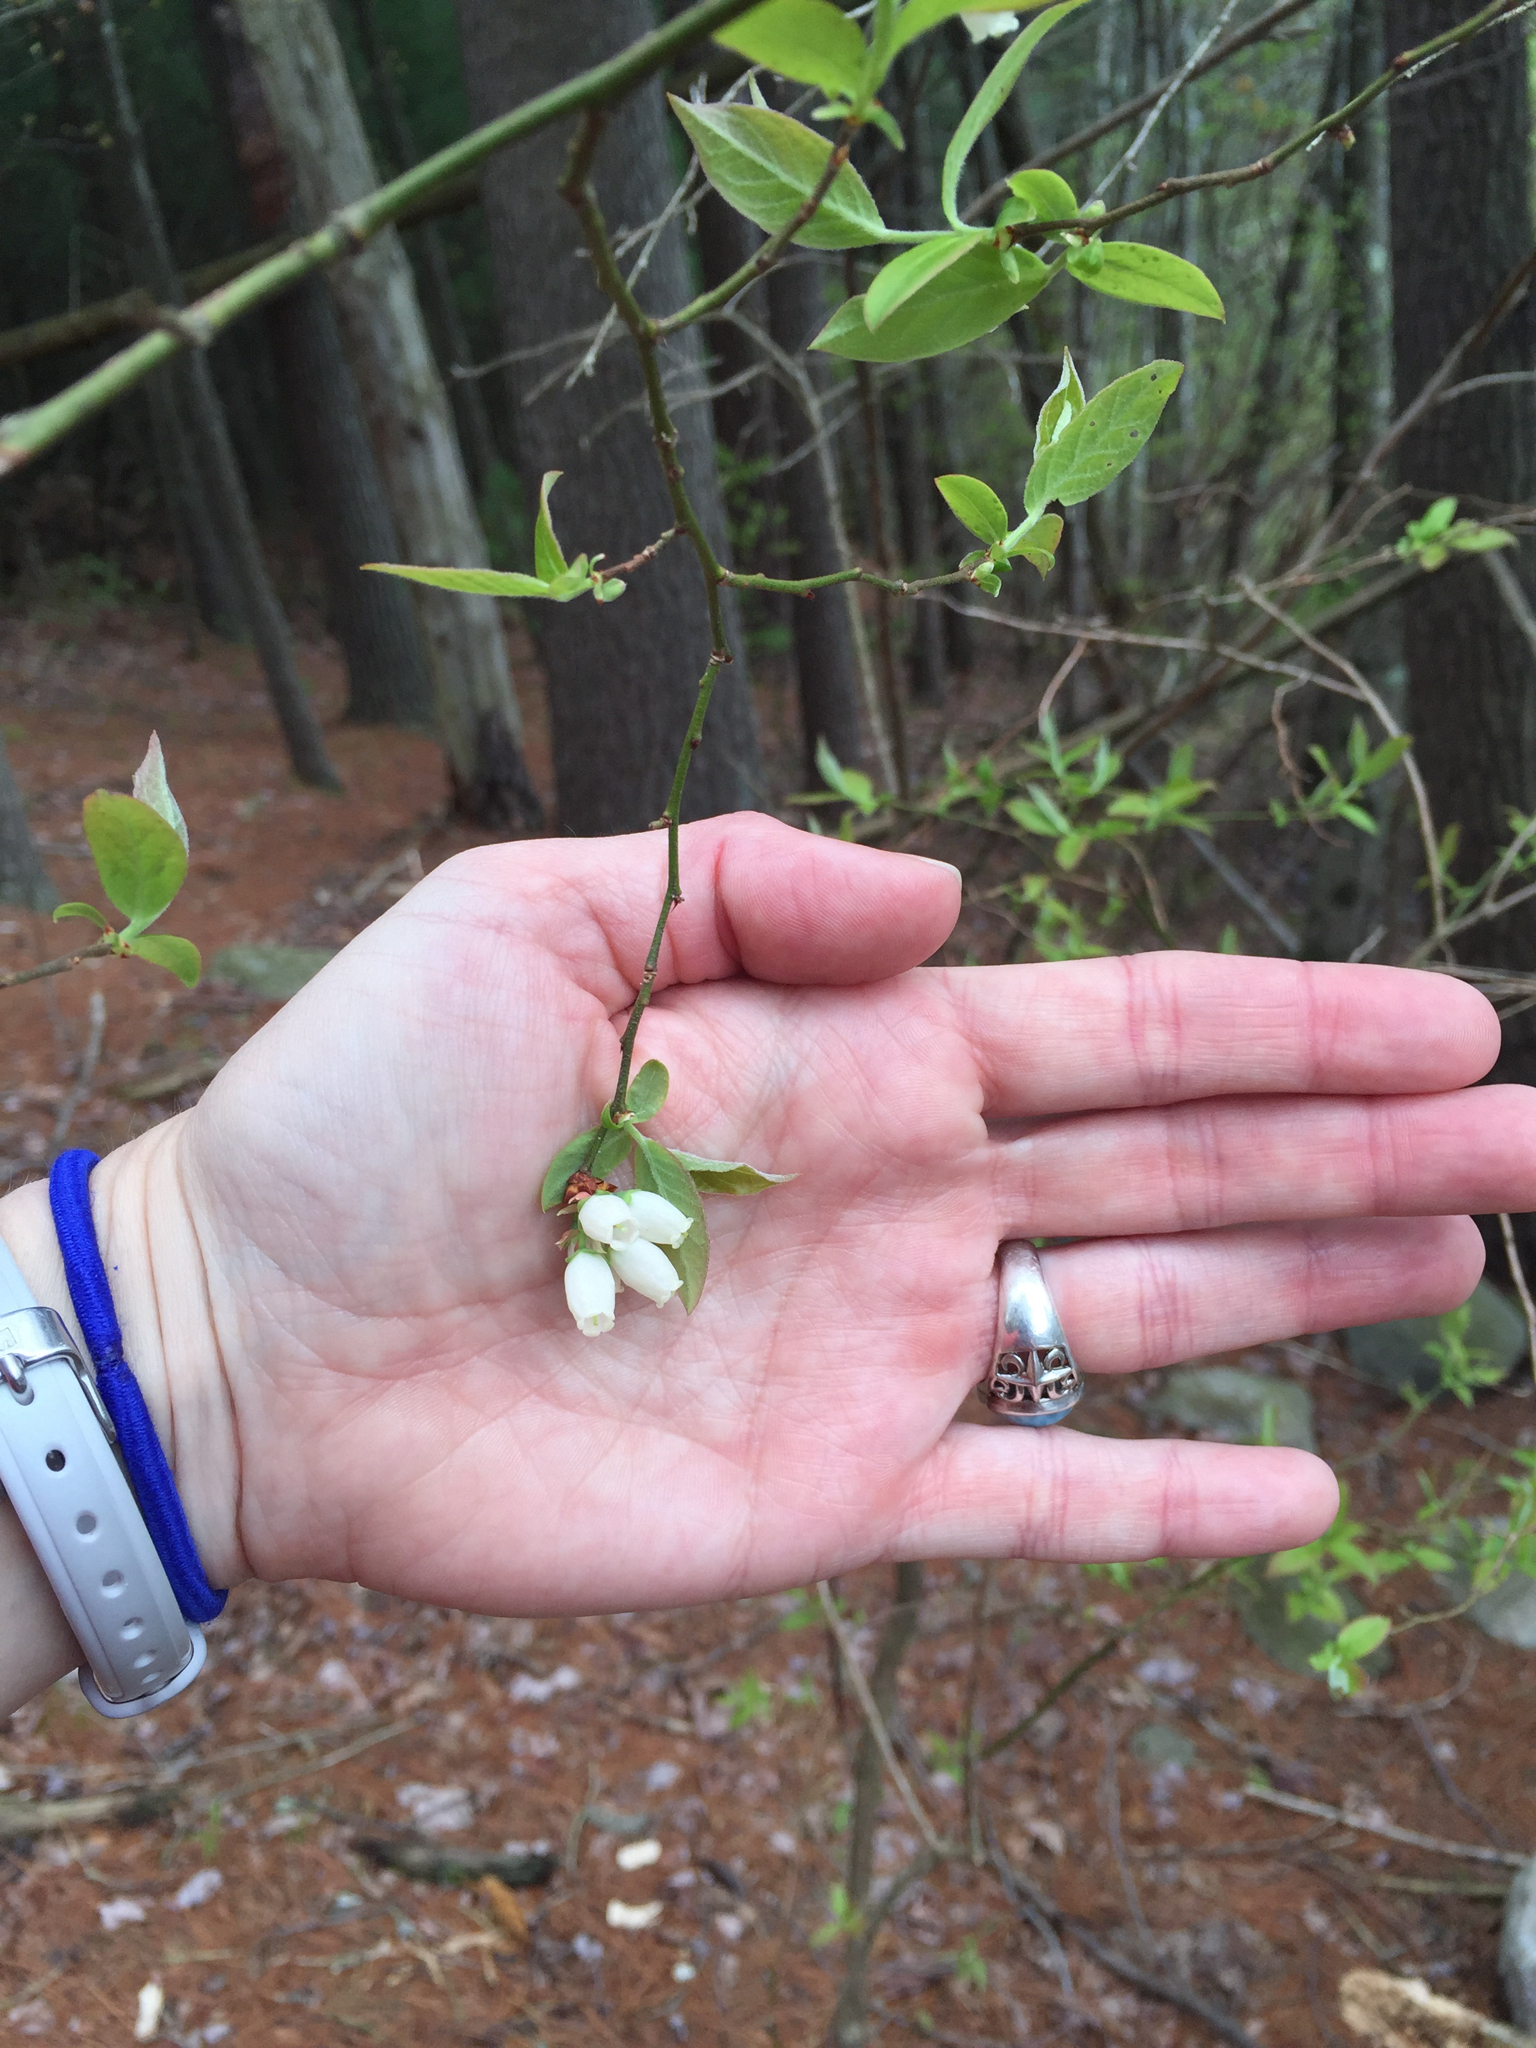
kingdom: Plantae
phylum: Tracheophyta
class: Magnoliopsida
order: Ericales
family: Ericaceae
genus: Vaccinium
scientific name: Vaccinium corymbosum
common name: Blueberry
